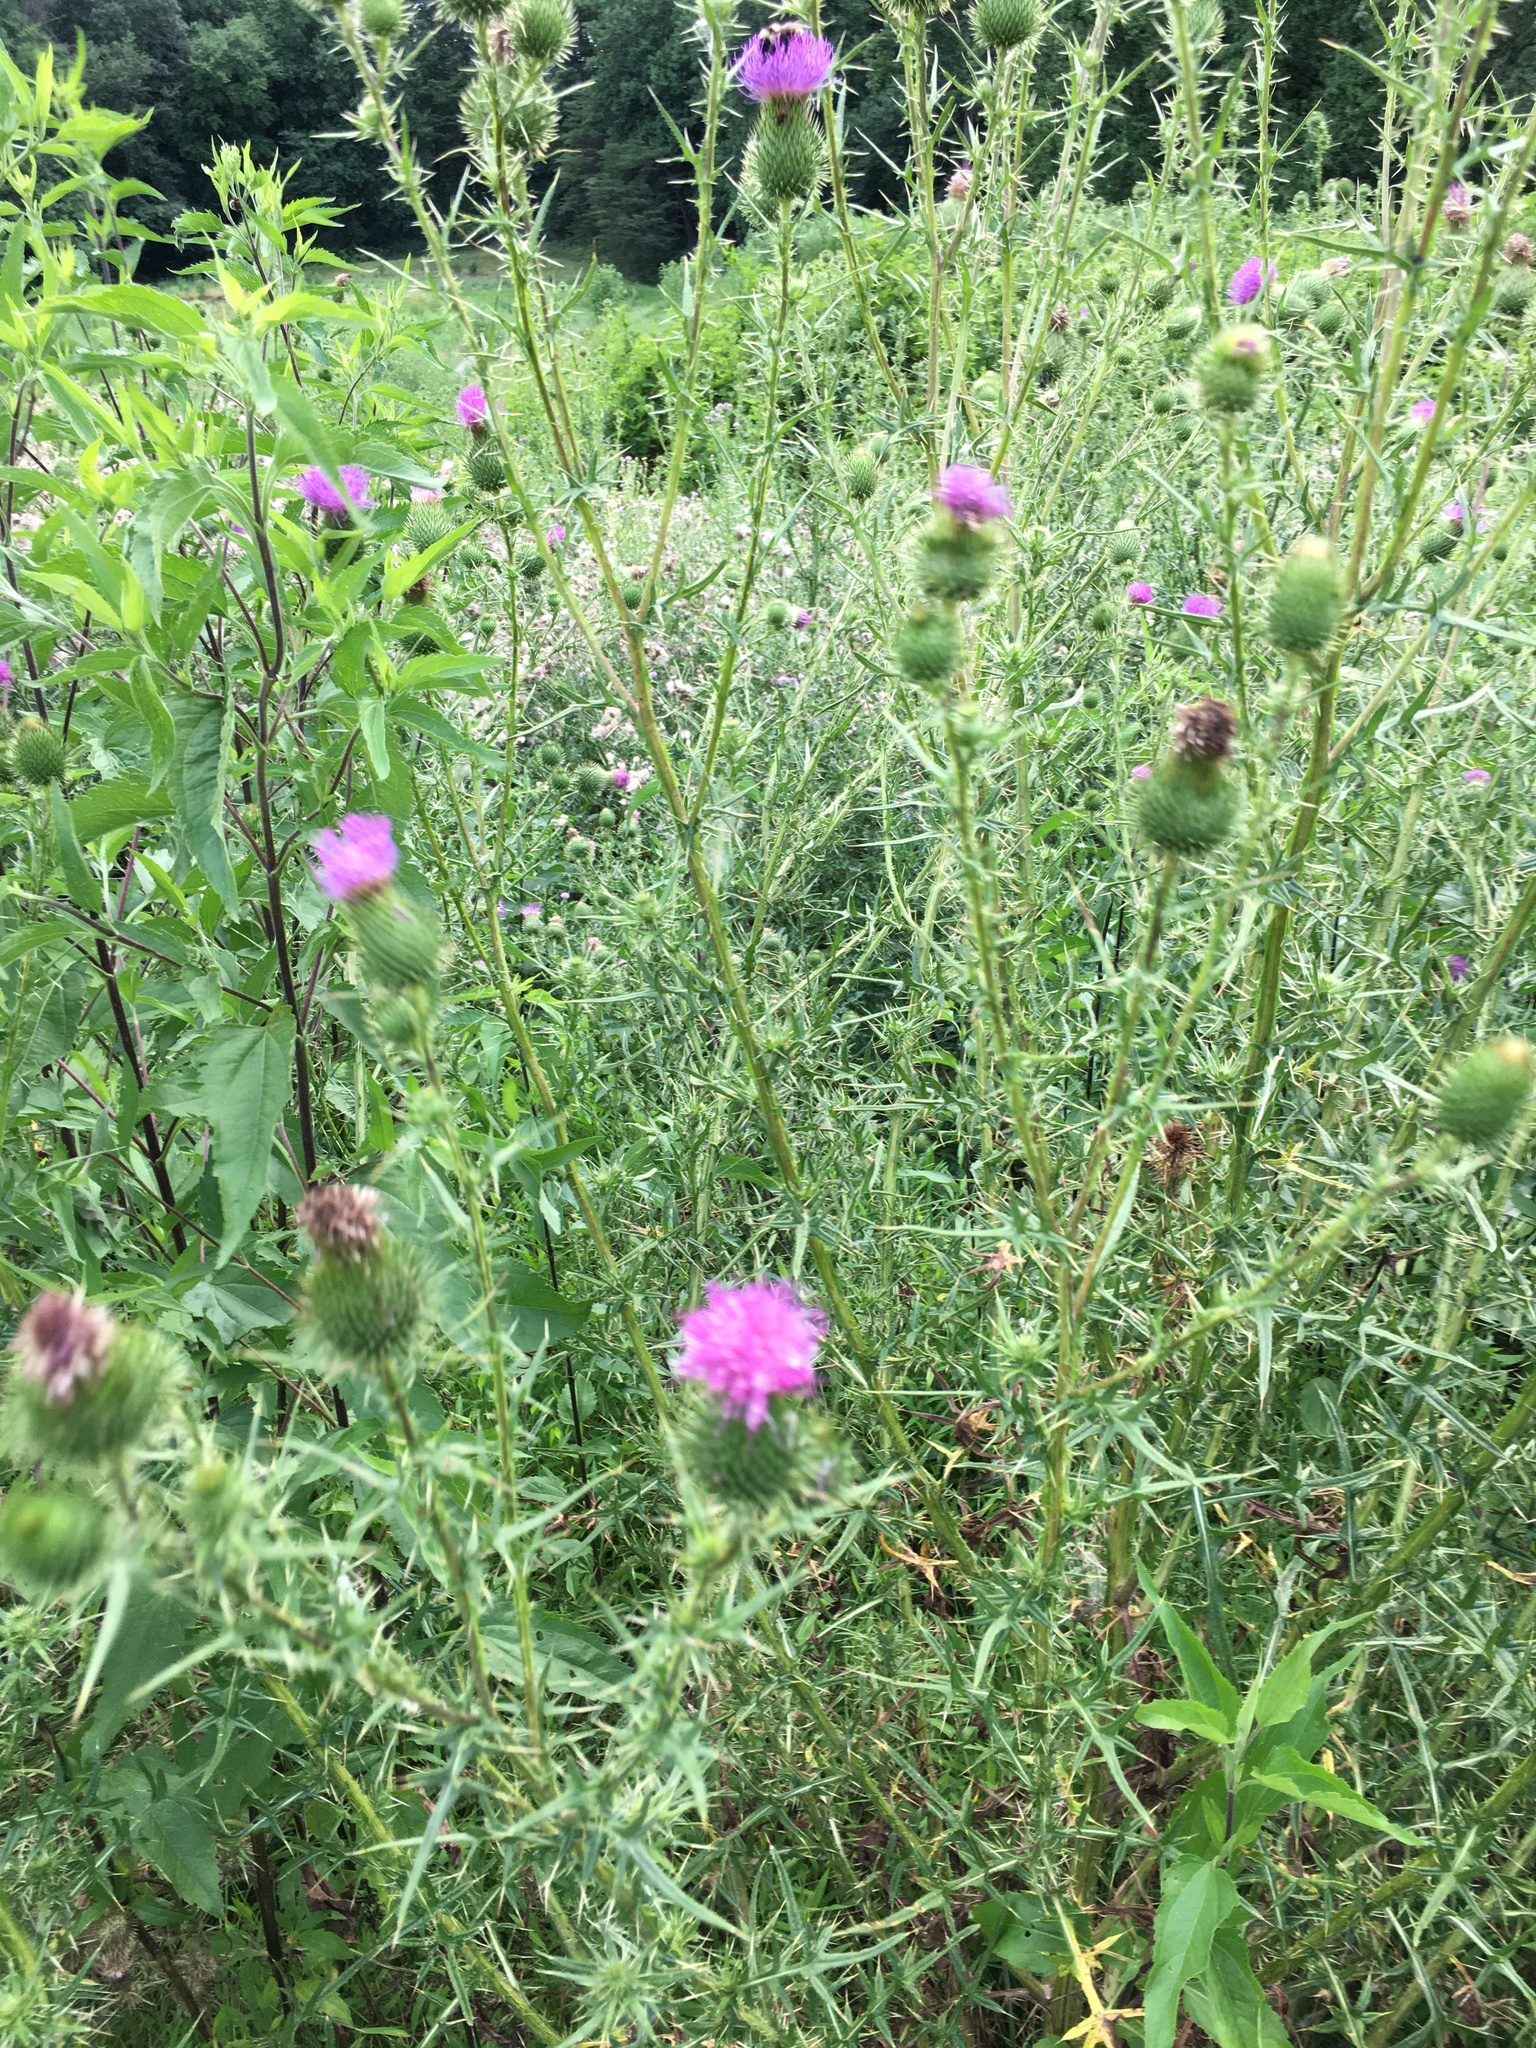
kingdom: Plantae
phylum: Tracheophyta
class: Magnoliopsida
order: Asterales
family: Asteraceae
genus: Cirsium
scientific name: Cirsium vulgare
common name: Bull thistle
